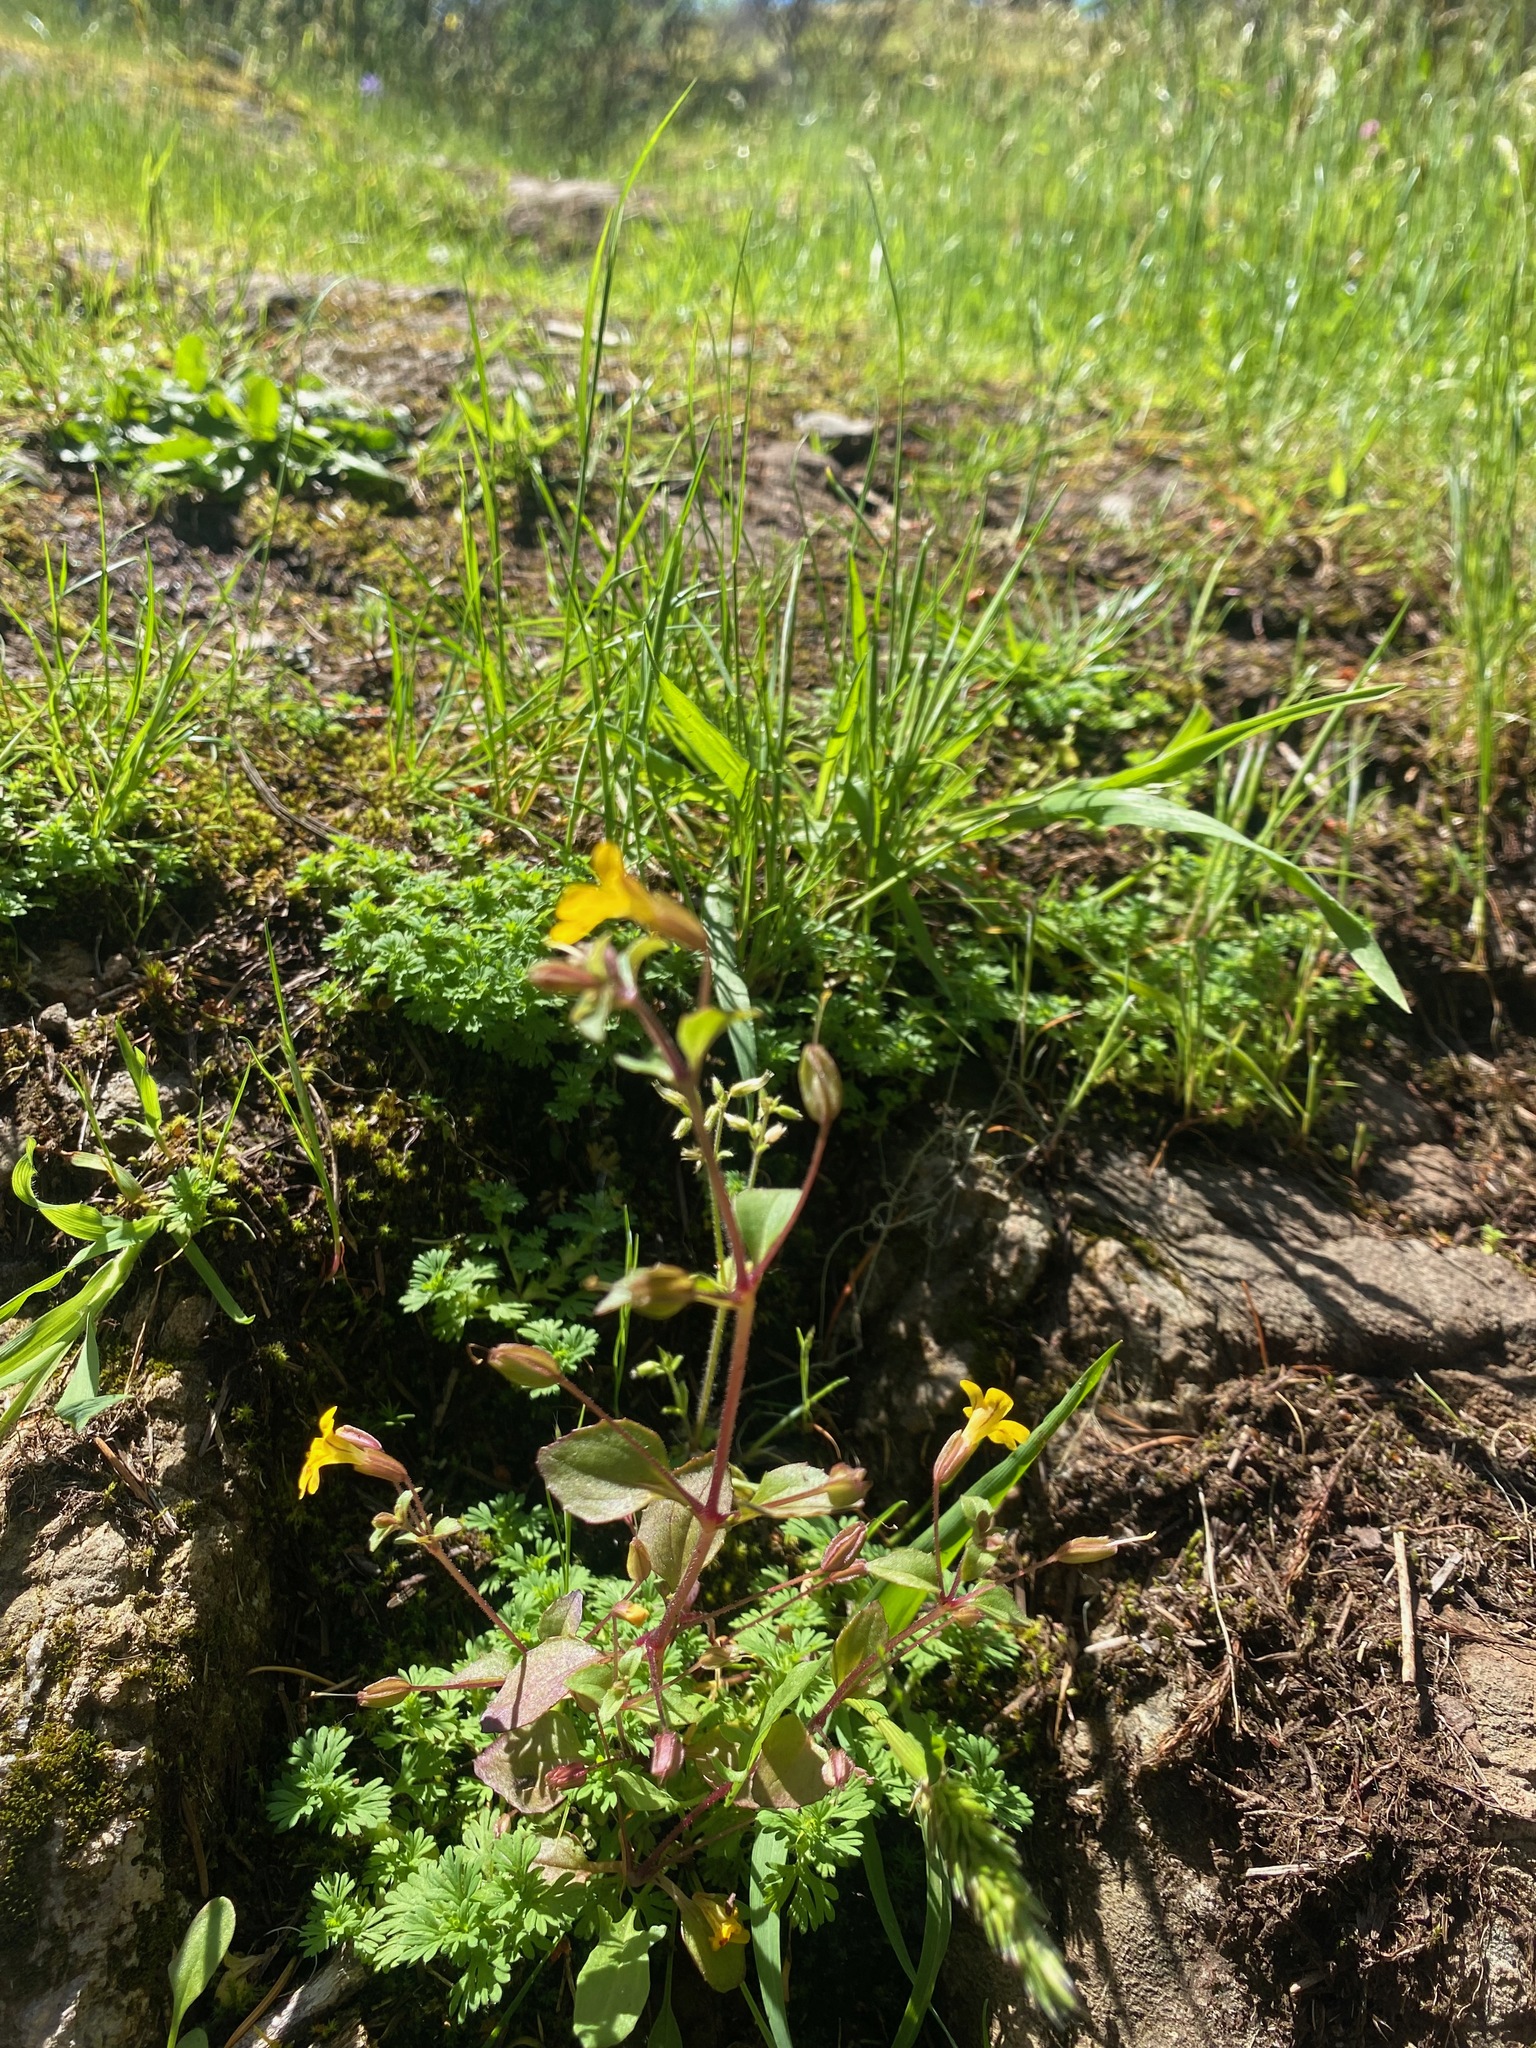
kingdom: Plantae
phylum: Tracheophyta
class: Magnoliopsida
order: Lamiales
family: Phrymaceae
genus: Erythranthe
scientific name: Erythranthe alsinoides
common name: Chickweed monkeyflower
